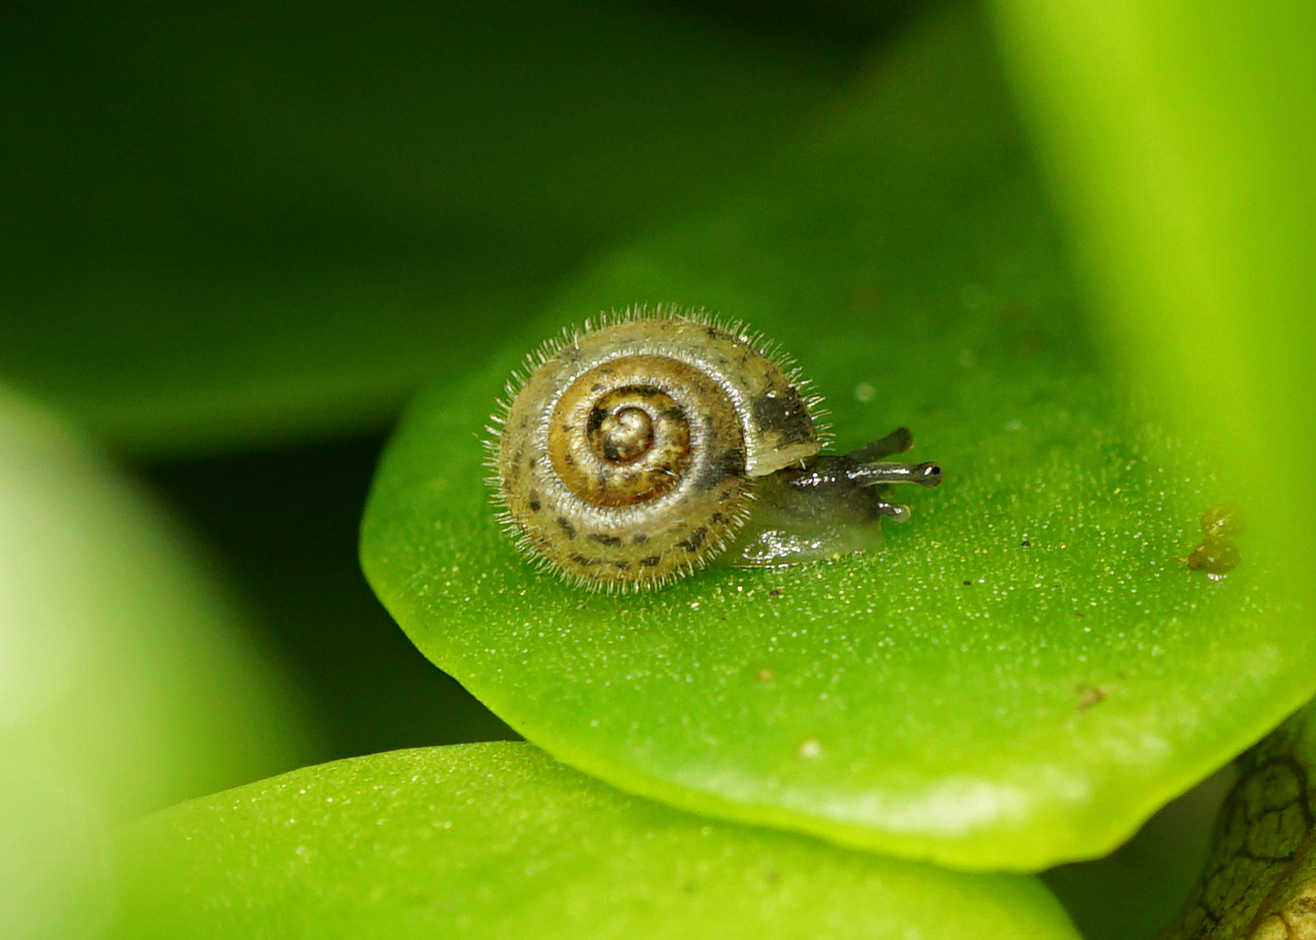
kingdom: Animalia
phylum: Mollusca
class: Gastropoda
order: Stylommatophora
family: Hygromiidae
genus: Ashfordia
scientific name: Ashfordia granulata
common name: Silky snail
